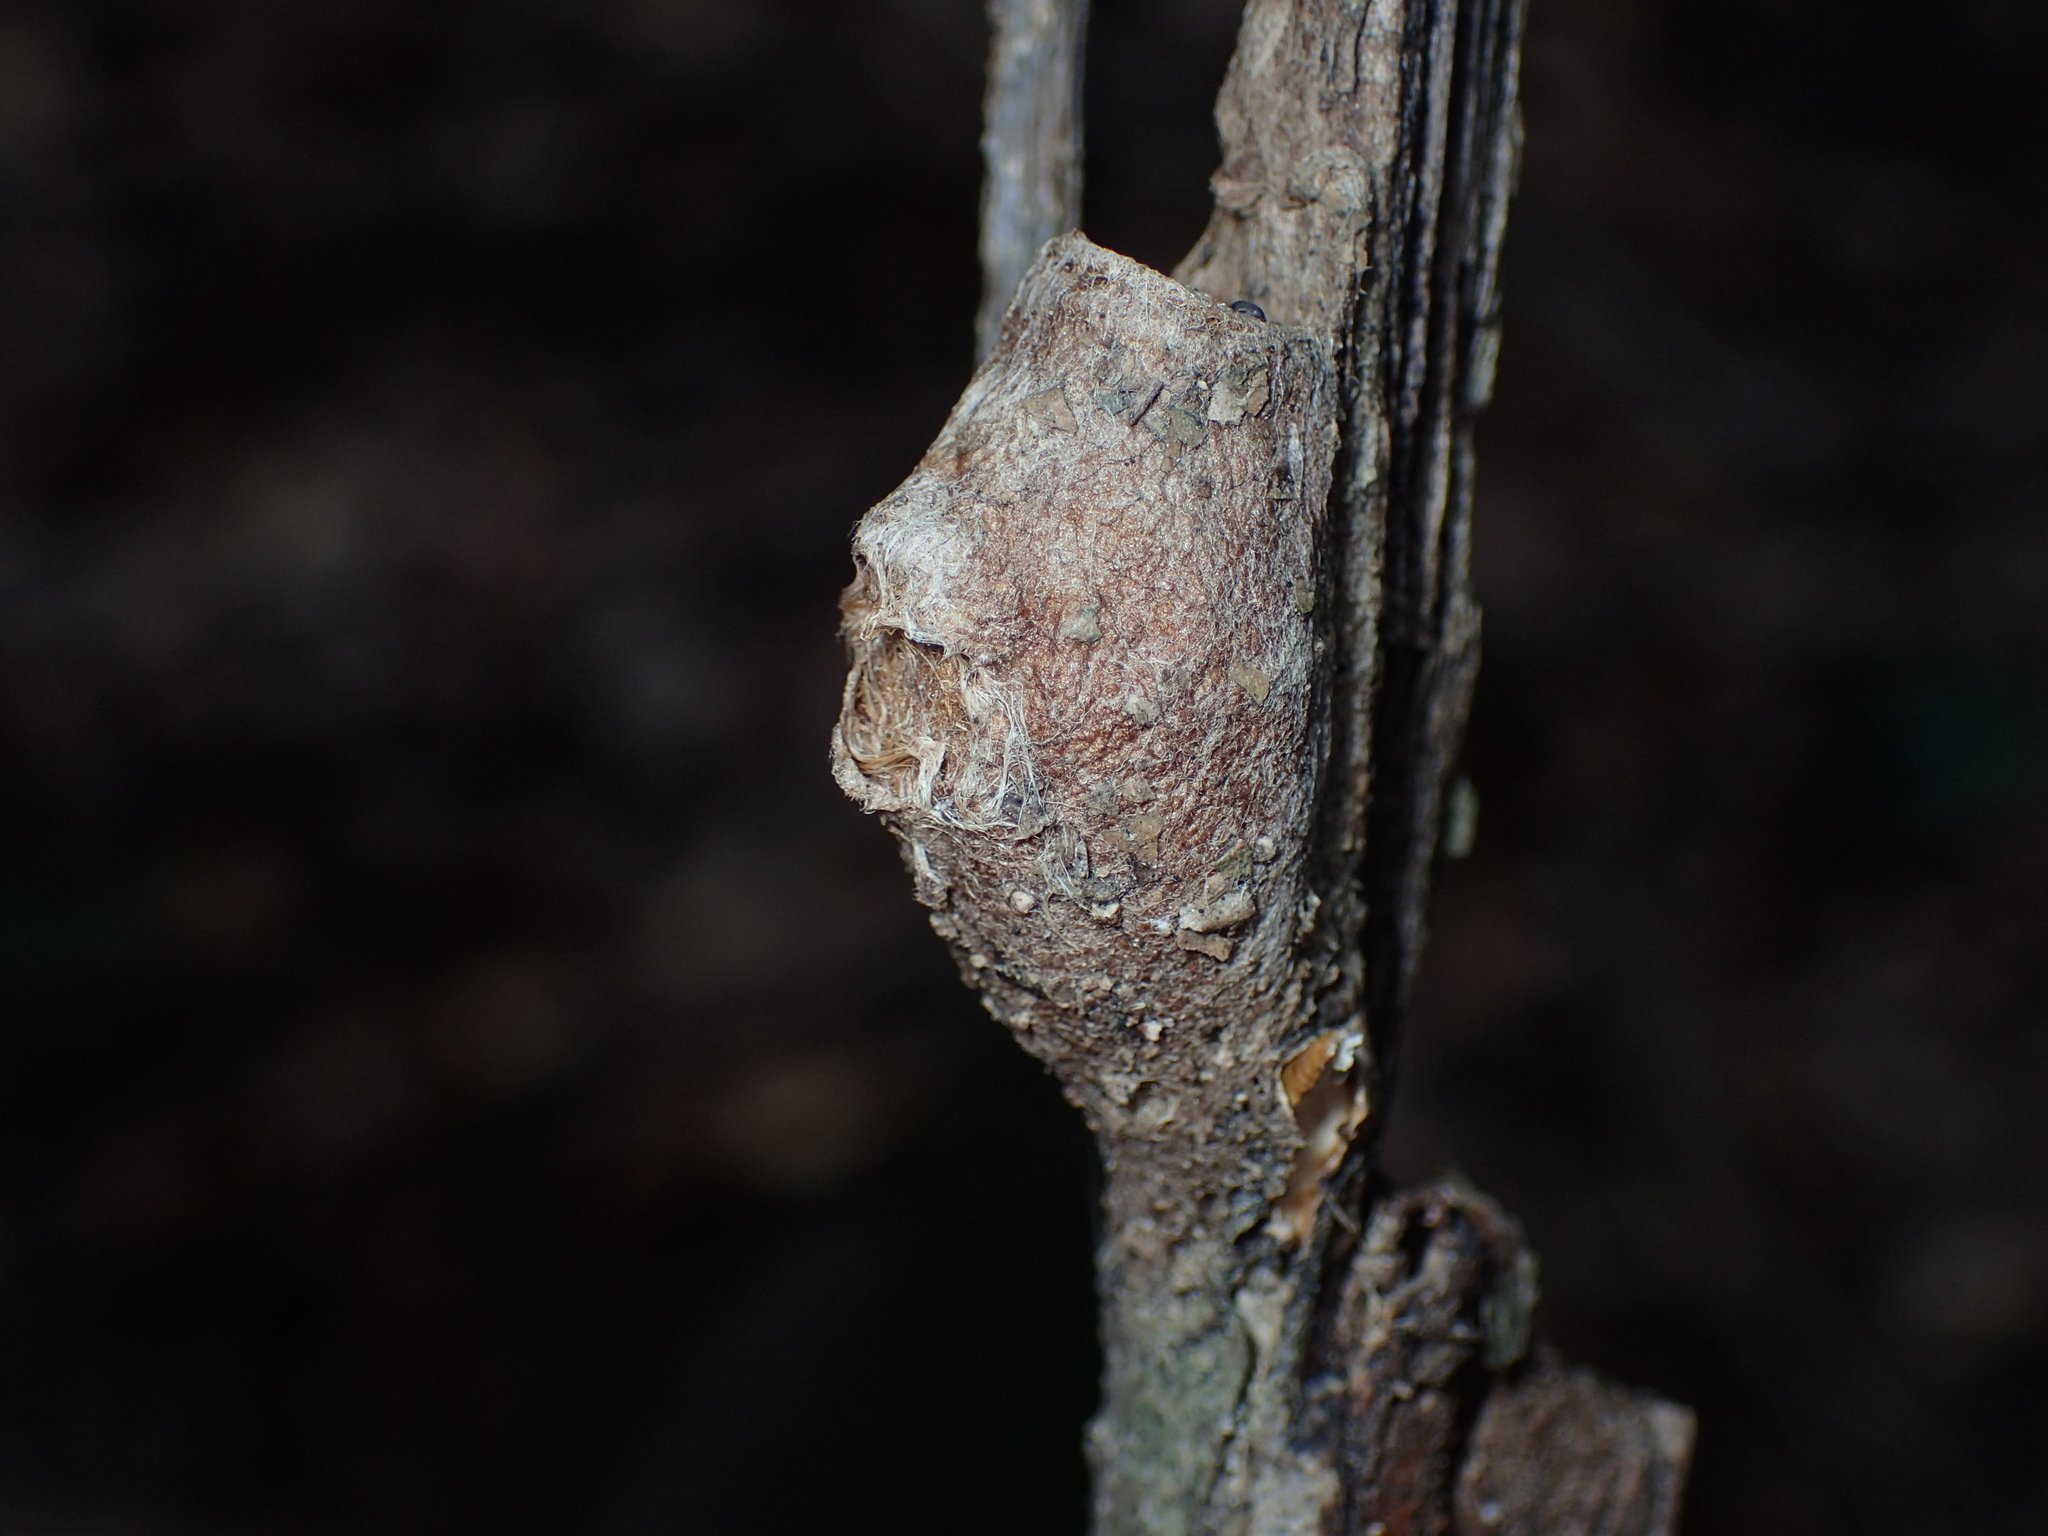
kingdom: Animalia
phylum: Arthropoda
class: Insecta
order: Lepidoptera
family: Megalopygidae
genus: Megalopyge
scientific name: Megalopyge
